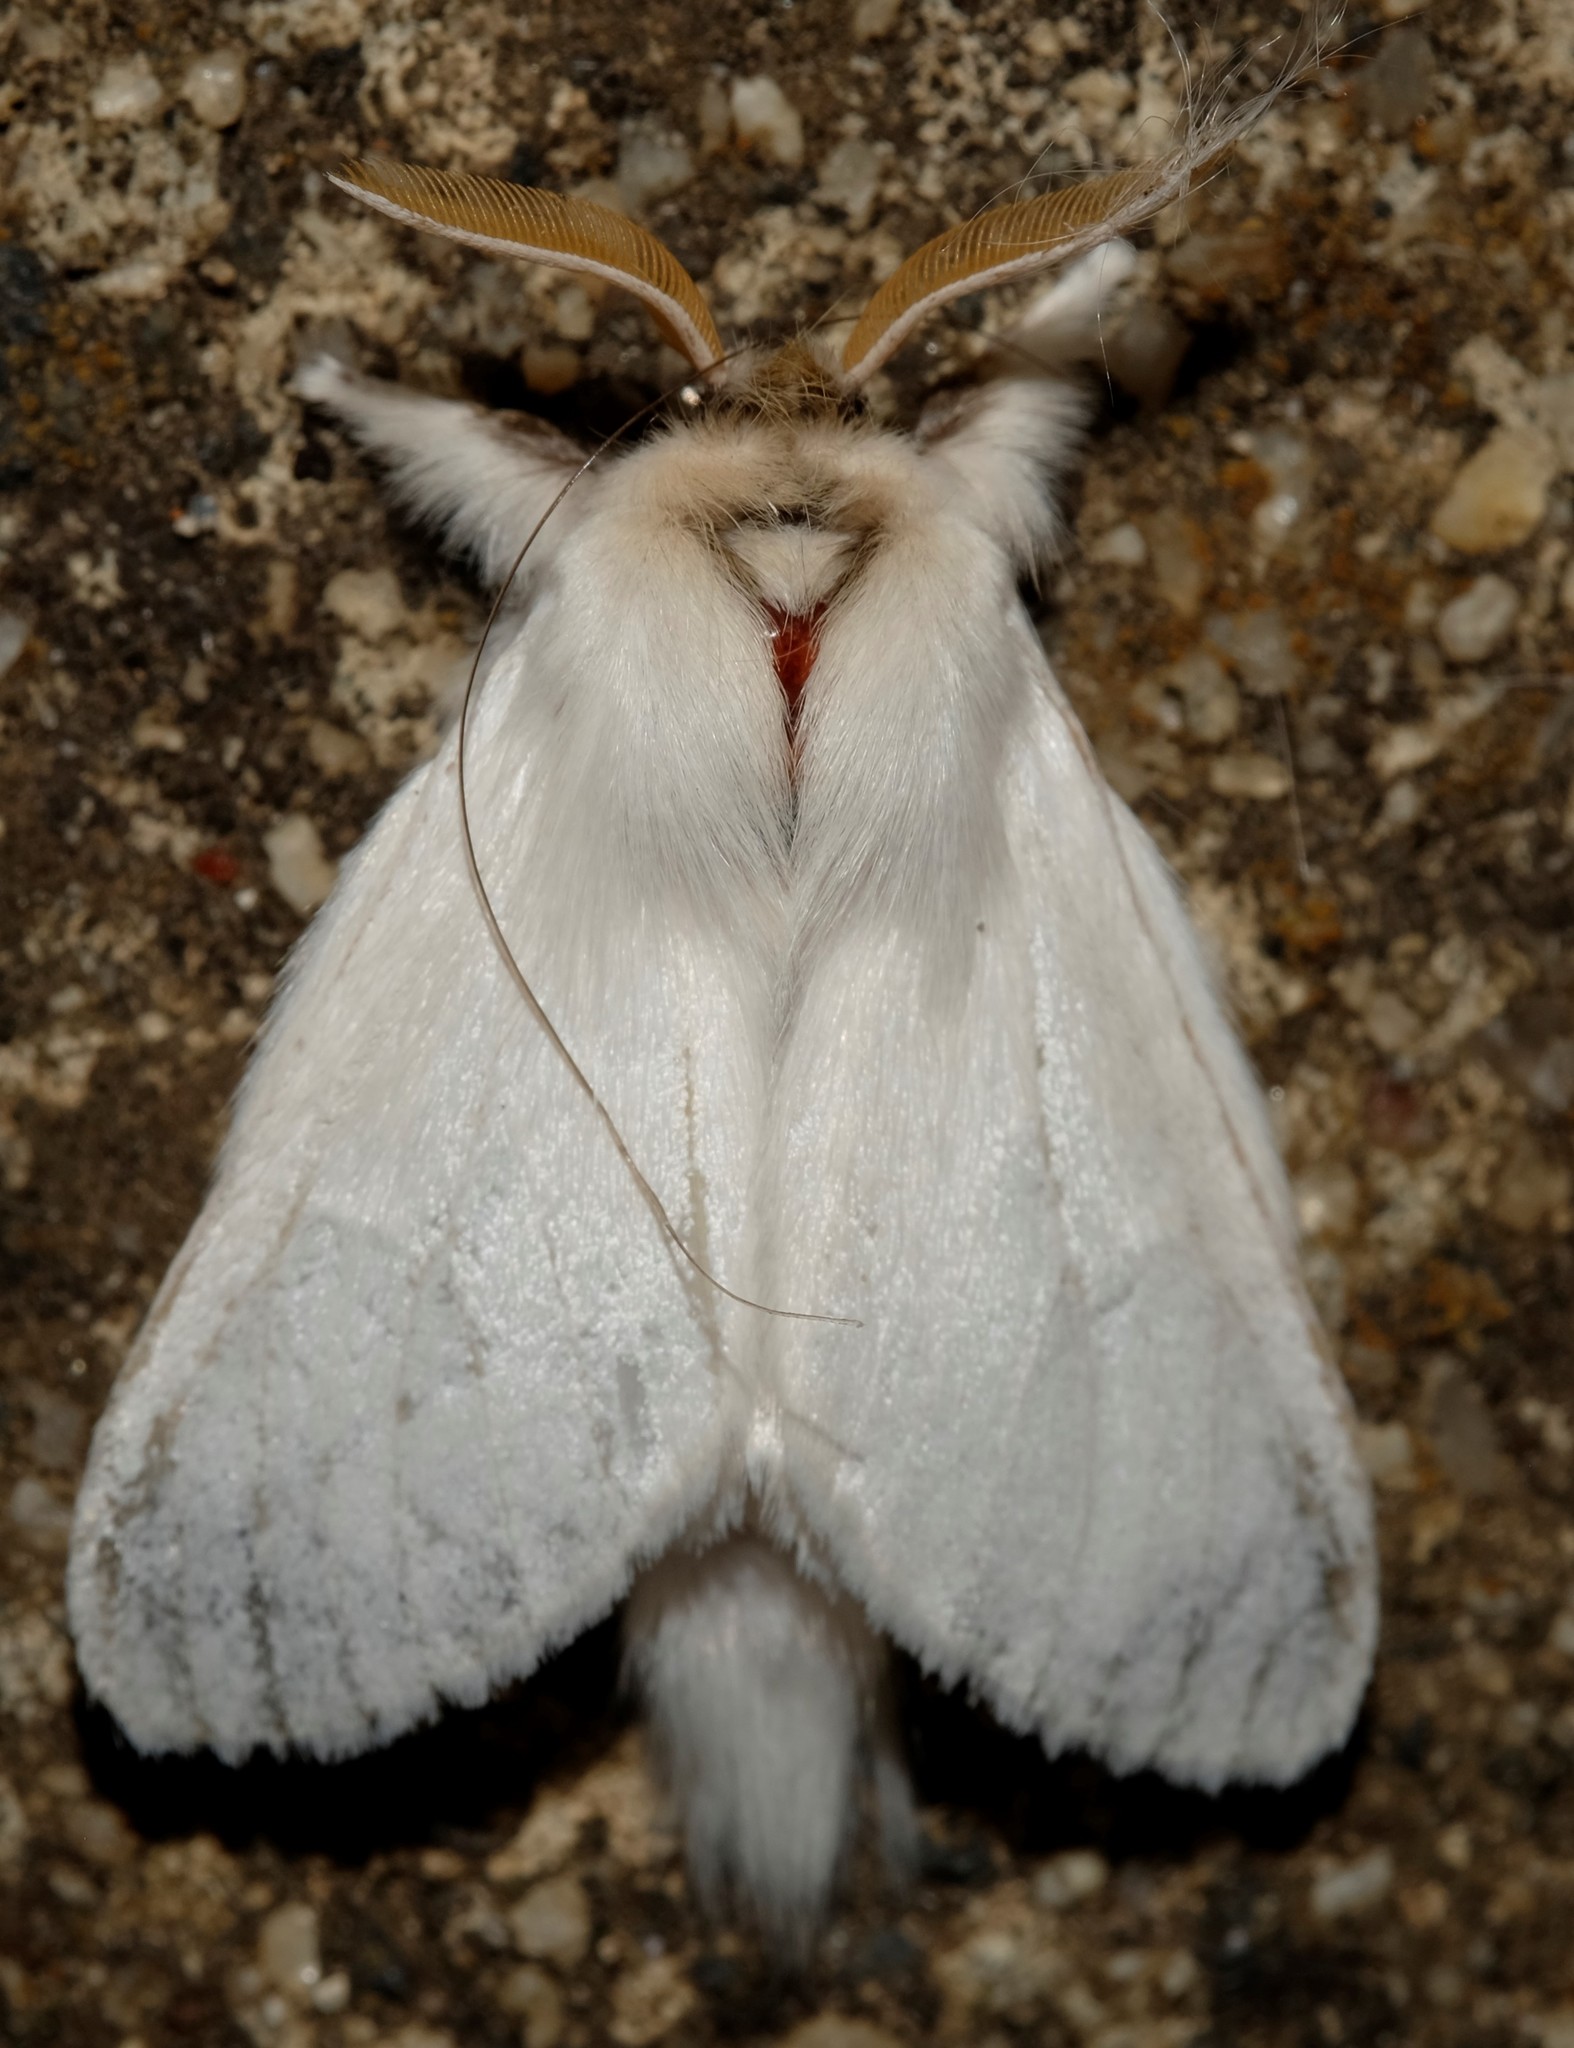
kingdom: Animalia
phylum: Arthropoda
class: Insecta
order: Lepidoptera
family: Notodontidae
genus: Trichiocercus
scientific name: Trichiocercus sparshalli
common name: Long-tailed satin
